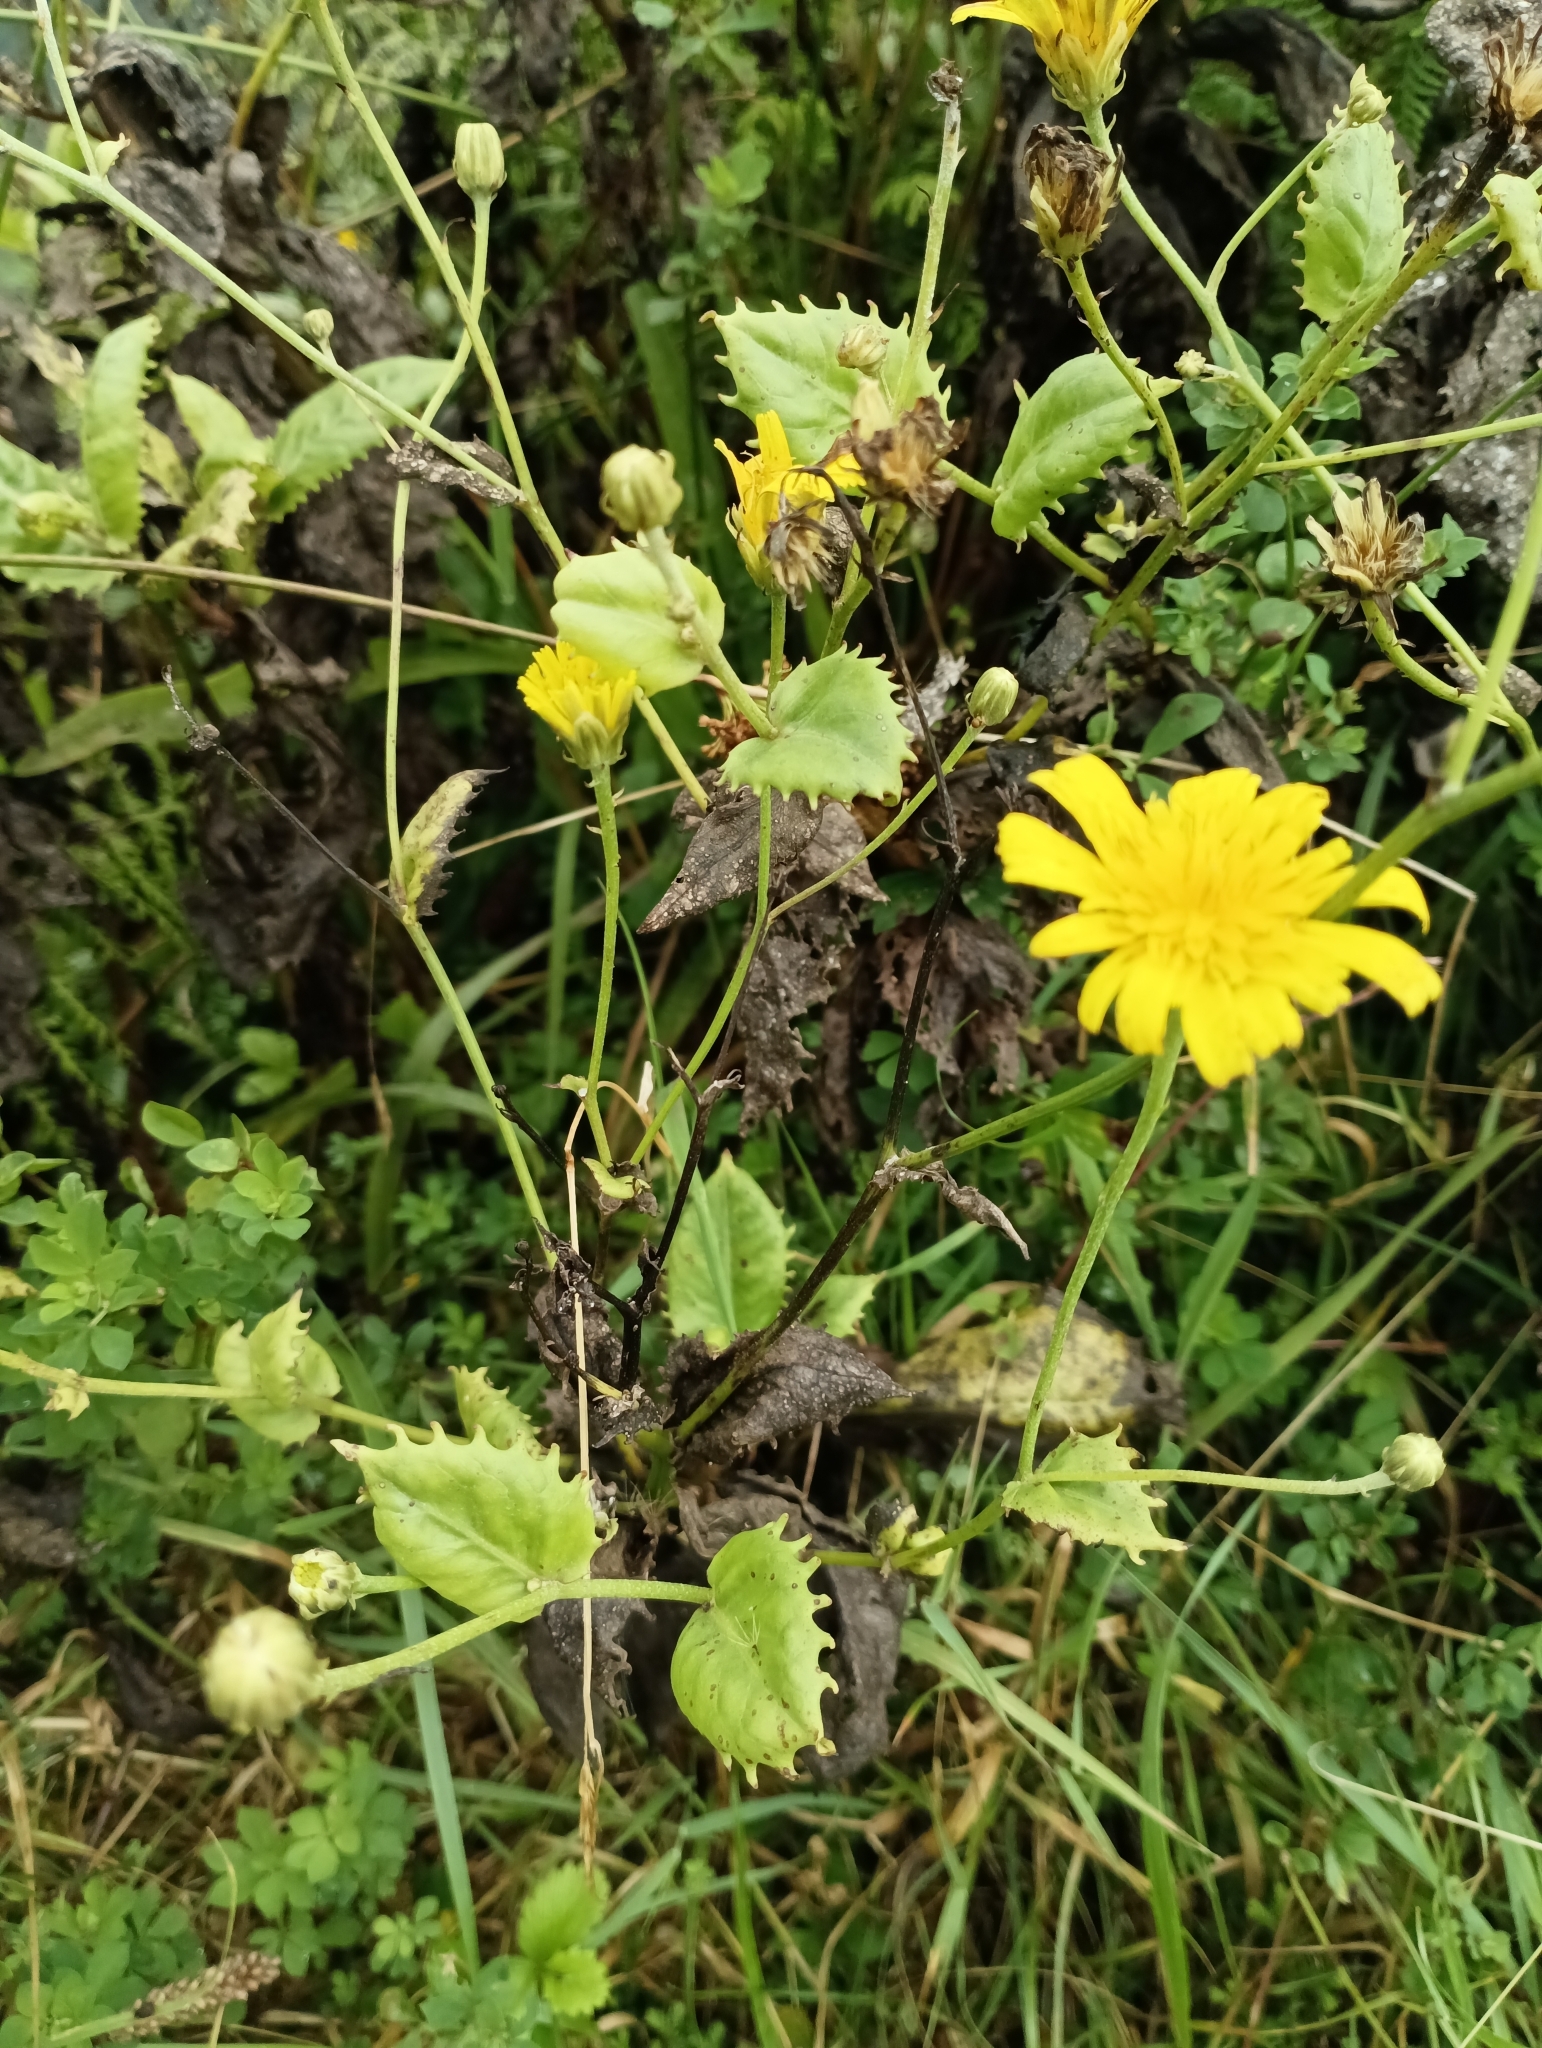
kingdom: Plantae
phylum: Tracheophyta
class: Magnoliopsida
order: Asterales
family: Asteraceae
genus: Tolpis
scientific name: Tolpis azorica
